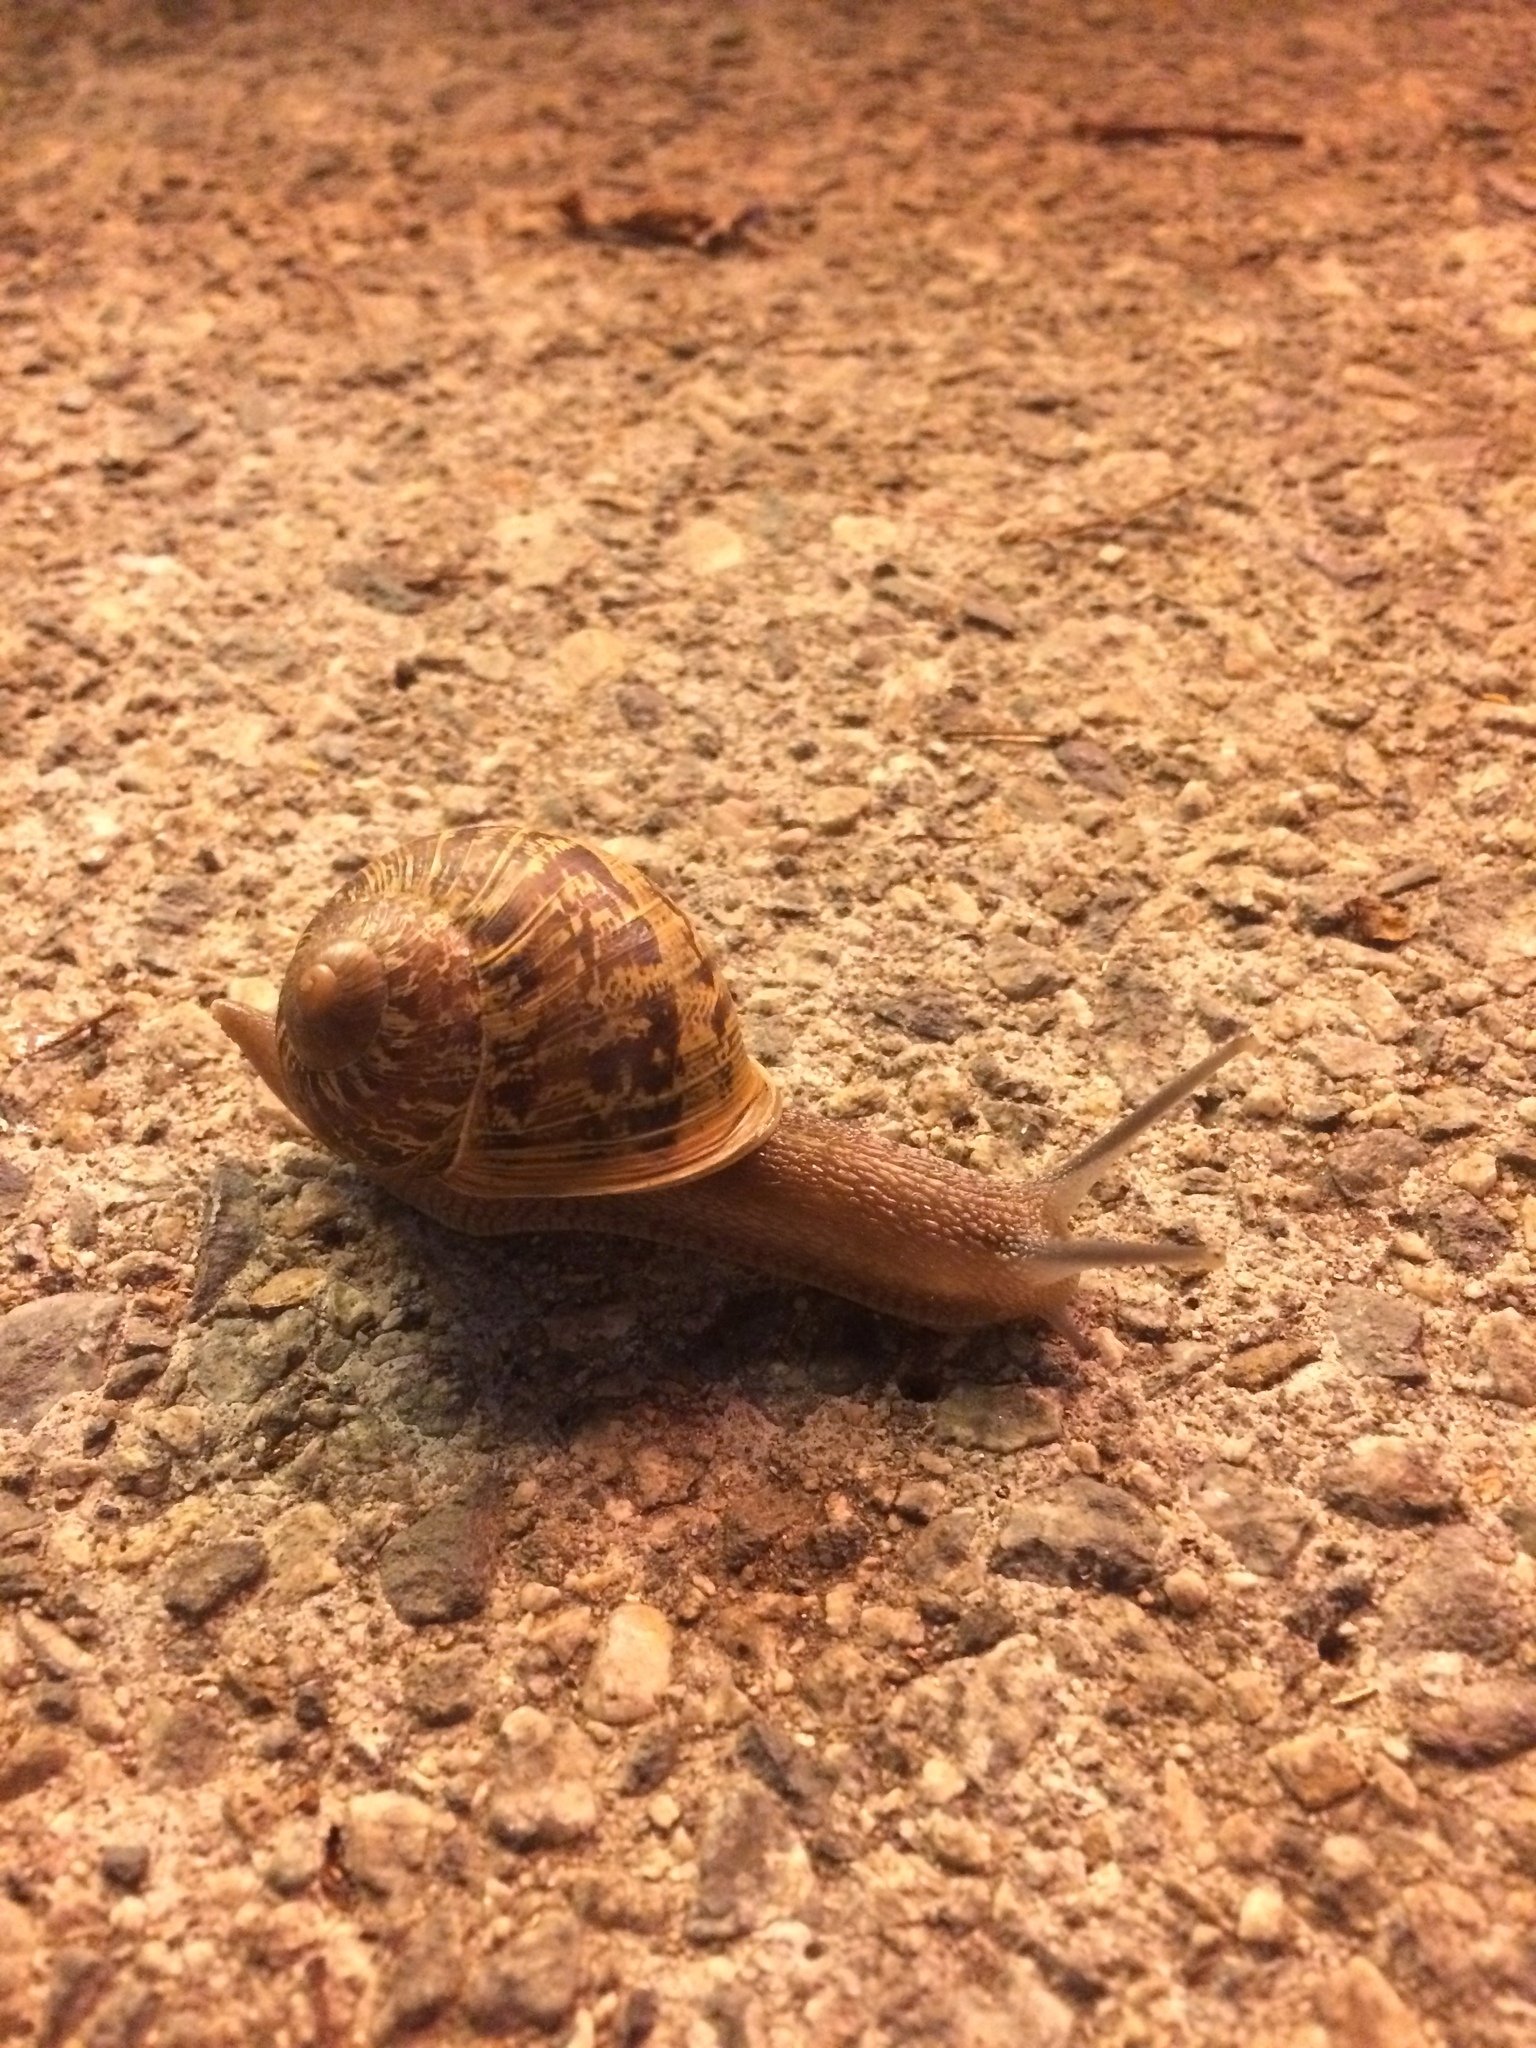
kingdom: Animalia
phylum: Mollusca
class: Gastropoda
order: Stylommatophora
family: Helicidae
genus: Cornu
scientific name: Cornu aspersum
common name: Brown garden snail
